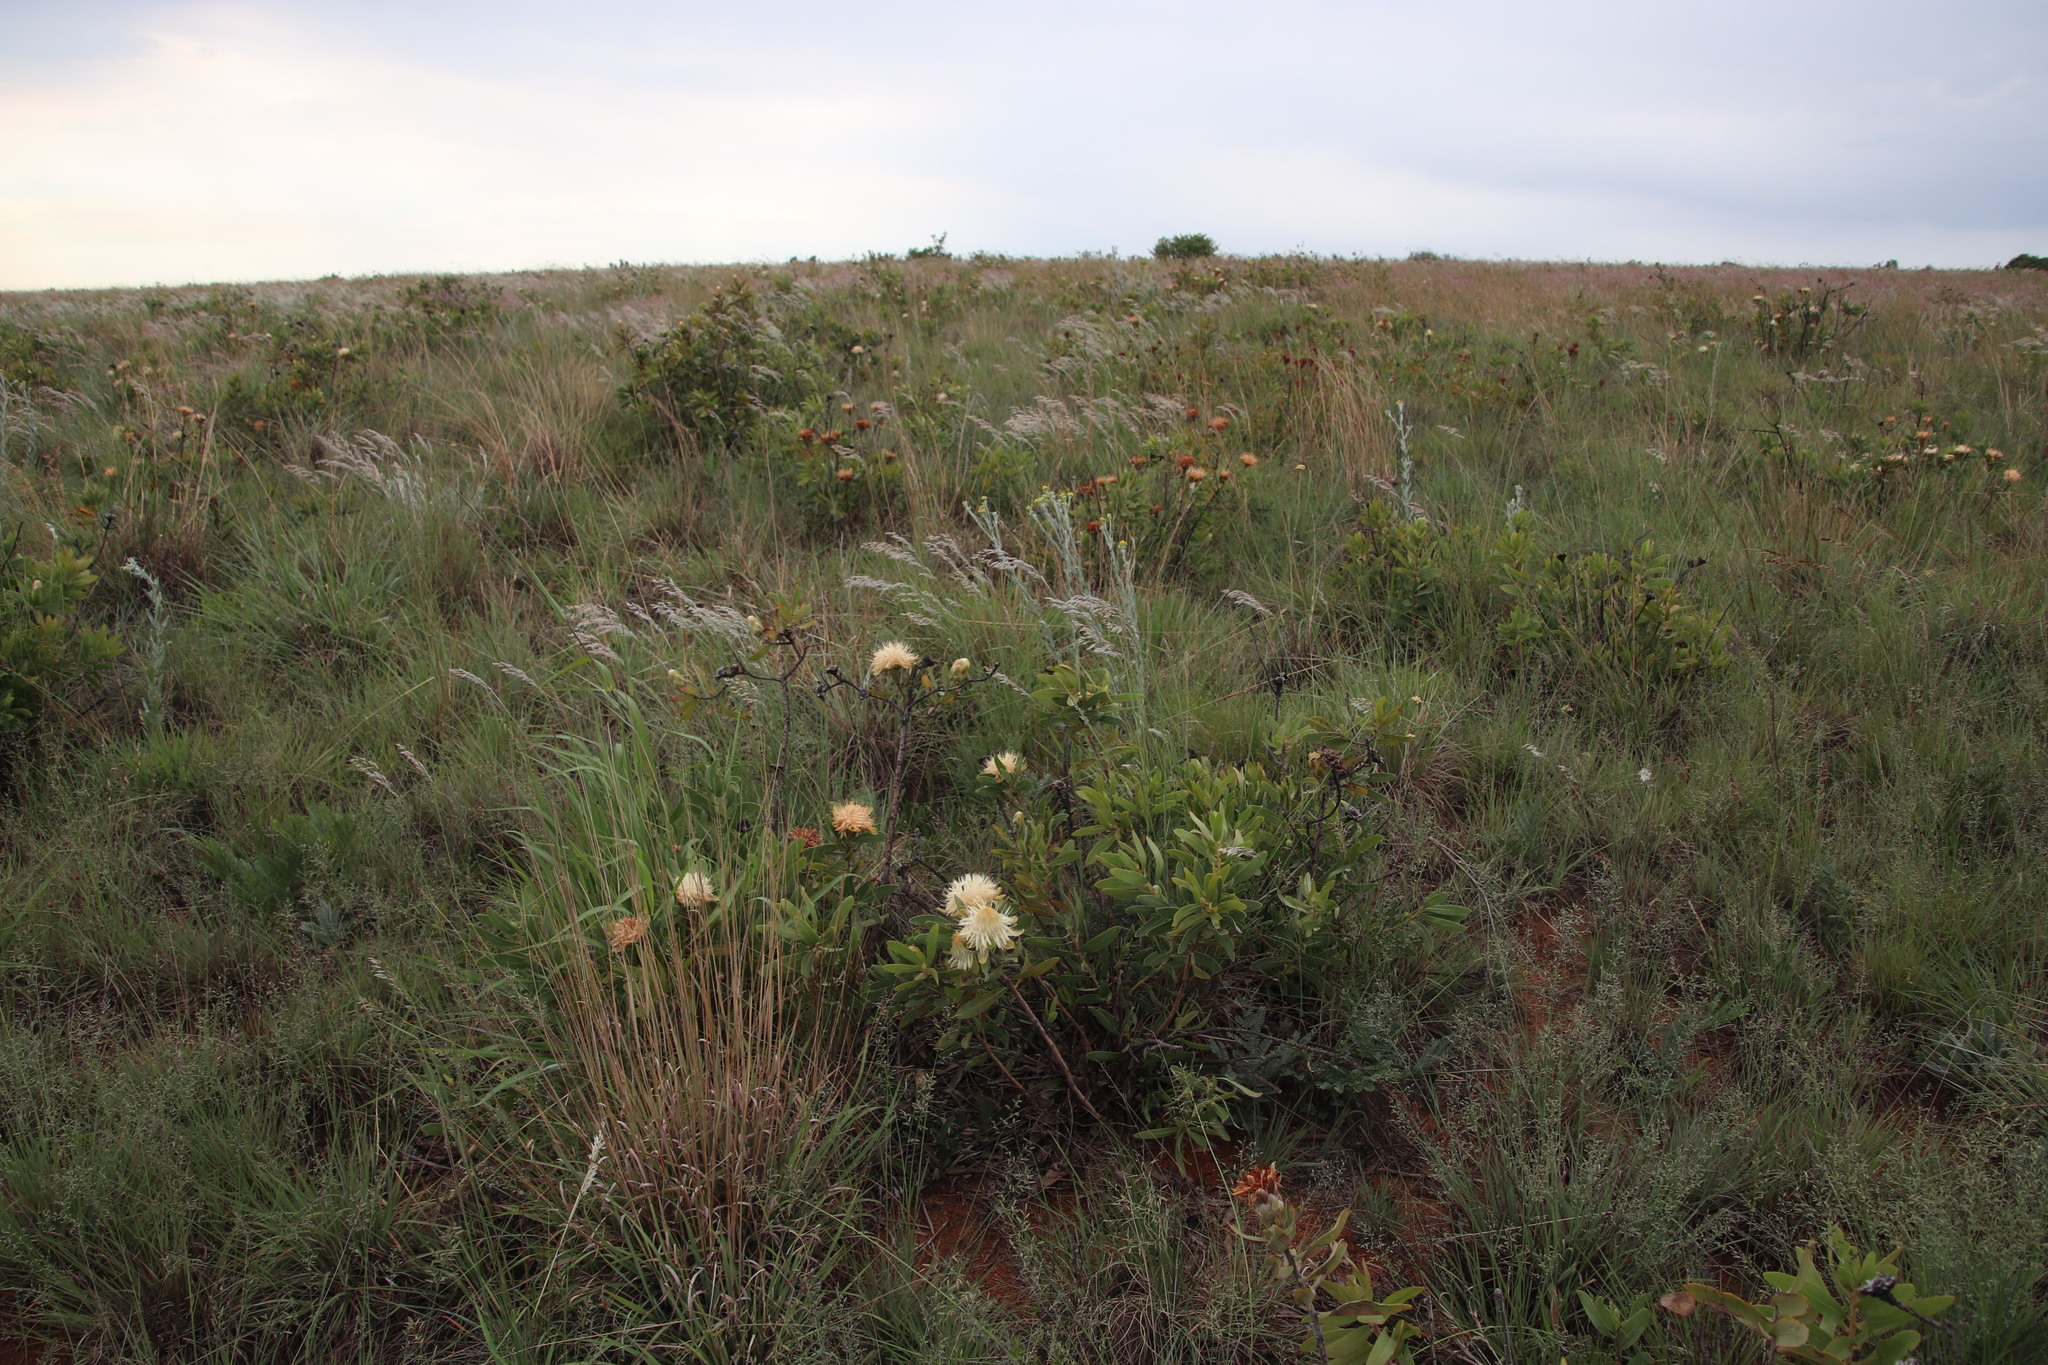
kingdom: Plantae
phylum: Tracheophyta
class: Magnoliopsida
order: Proteales
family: Proteaceae
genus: Protea
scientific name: Protea welwitschii
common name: Cluster-head protea
